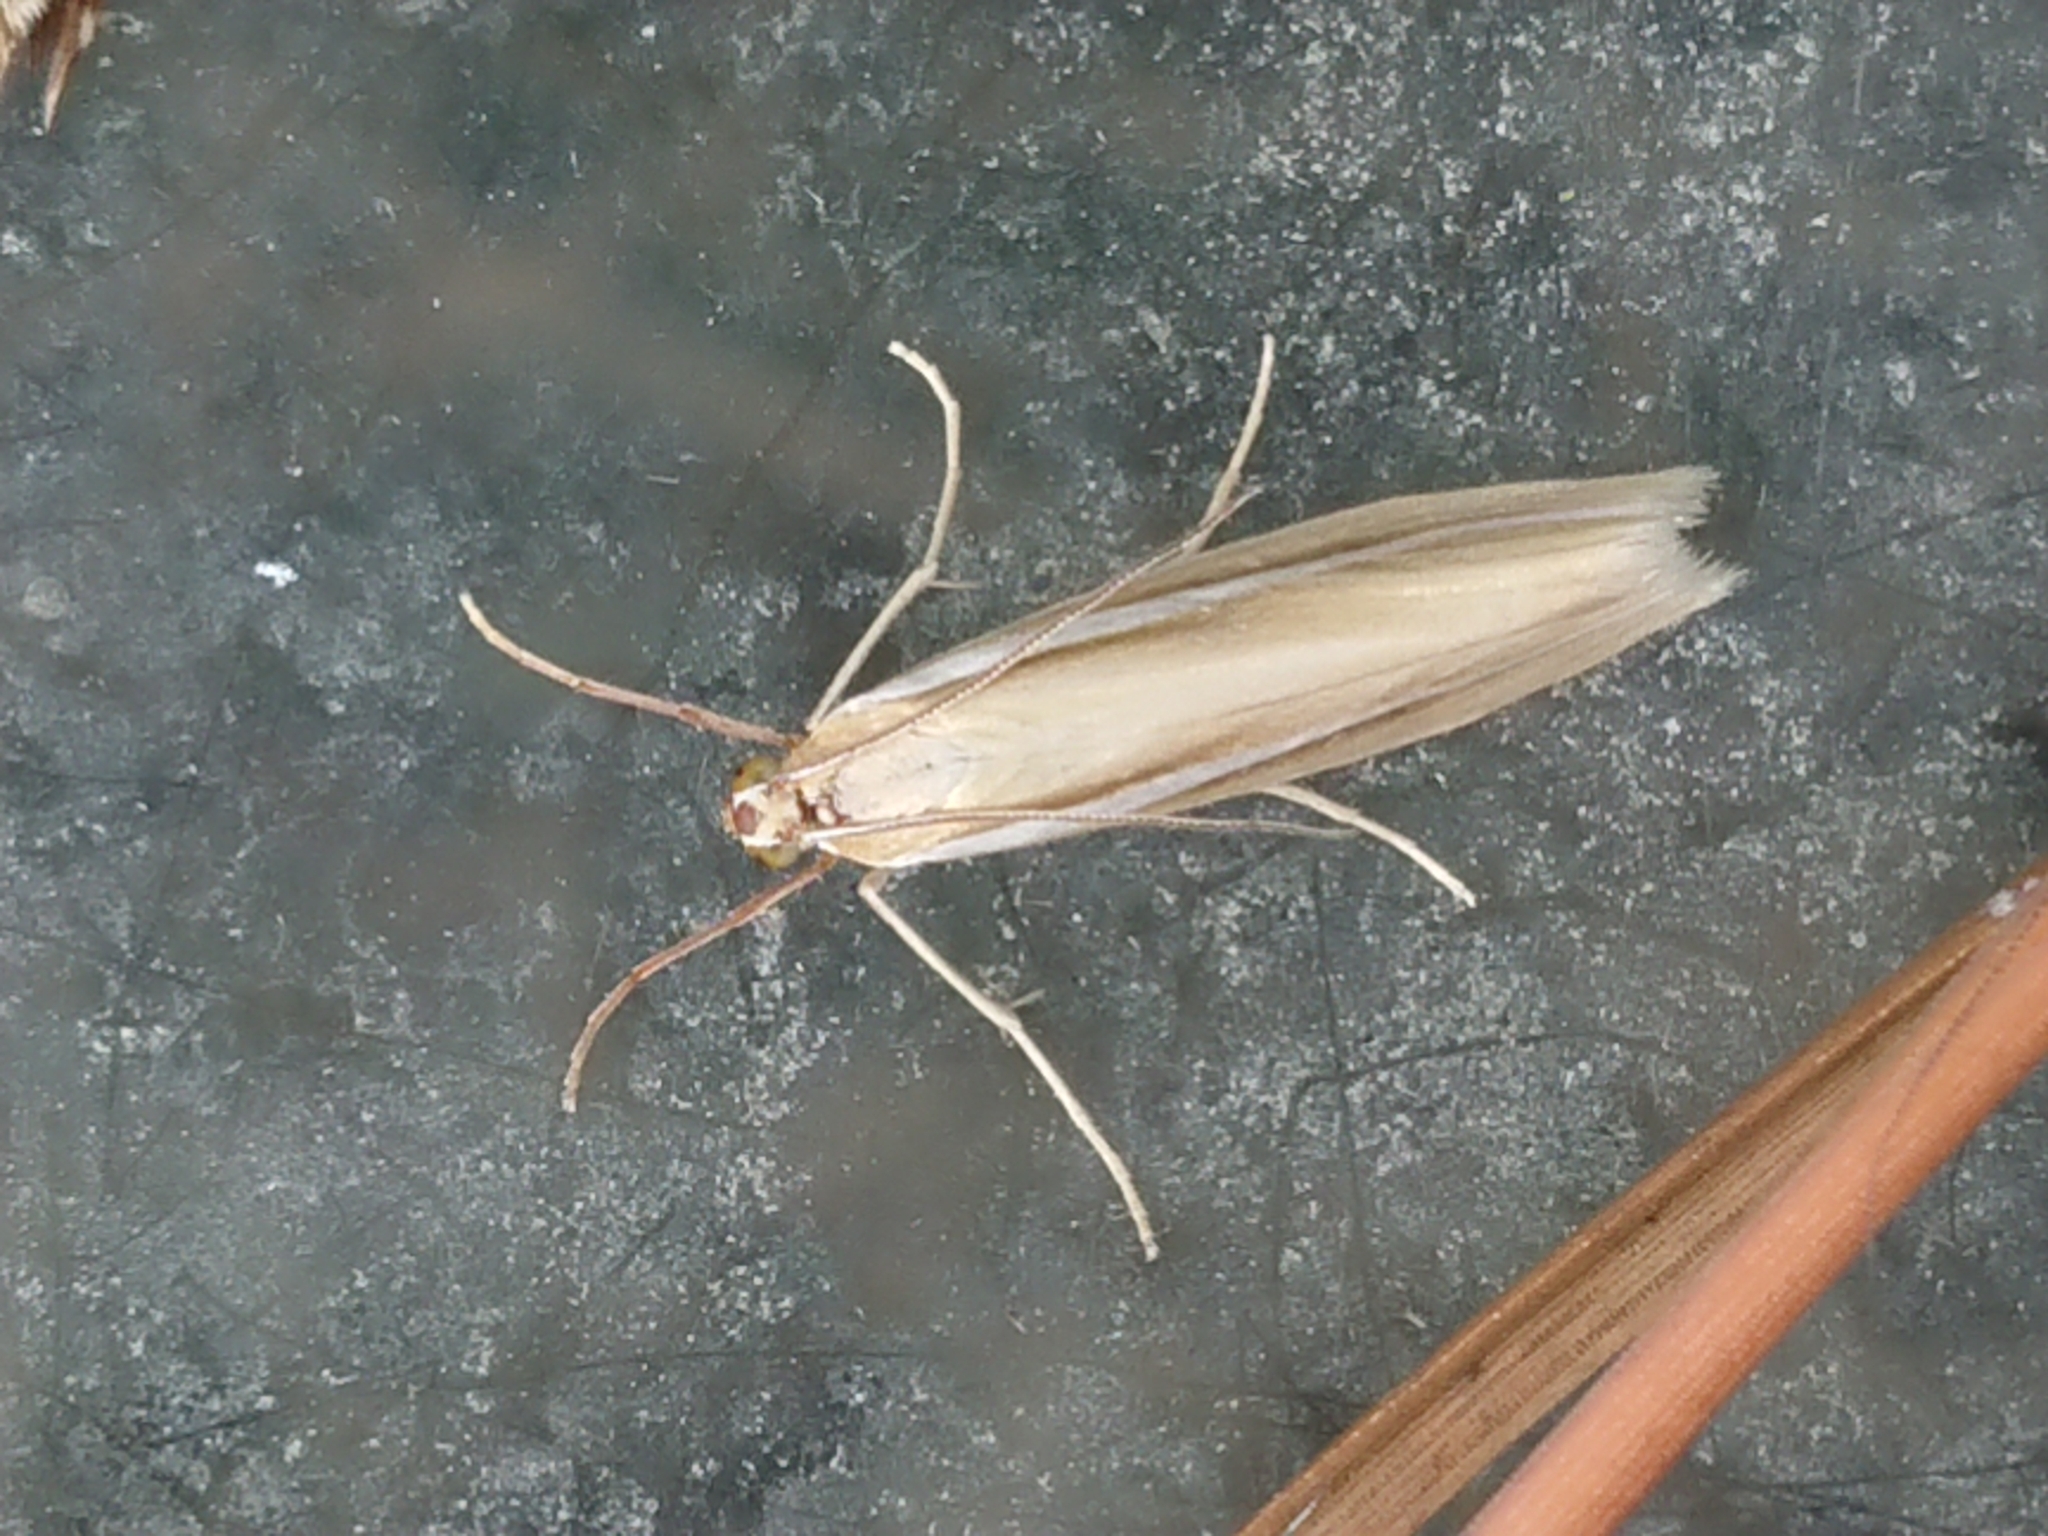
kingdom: Animalia
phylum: Arthropoda
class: Insecta
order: Lepidoptera
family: Crambidae
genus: Orocrambus
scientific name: Orocrambus lewisi
